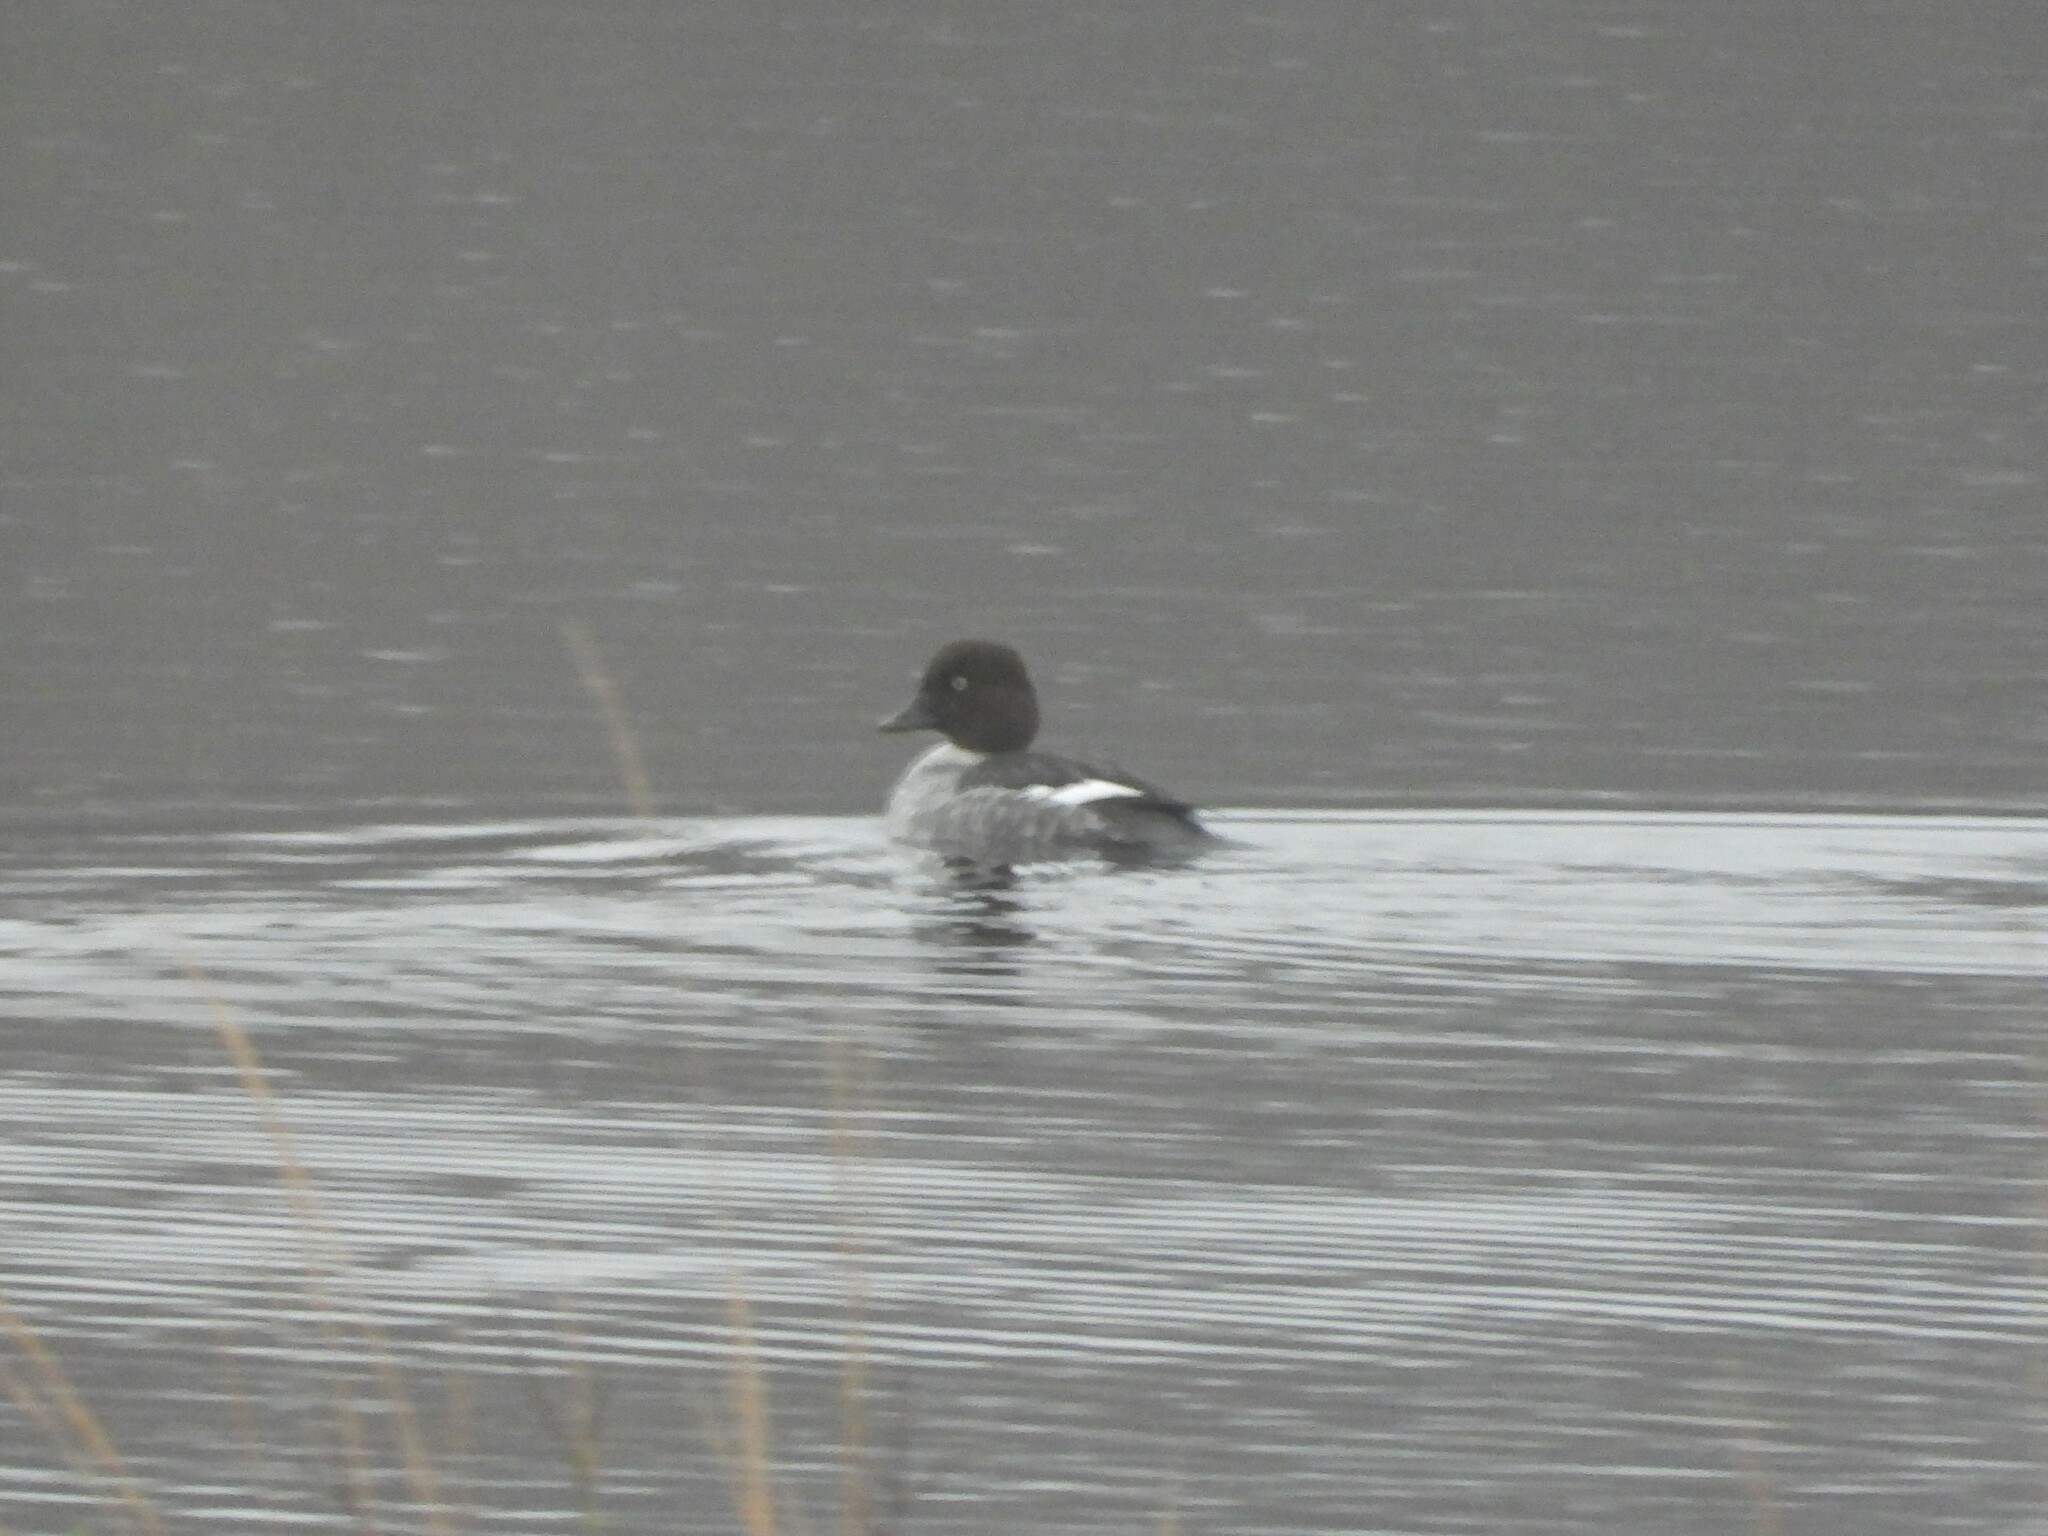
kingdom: Animalia
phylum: Chordata
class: Aves
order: Anseriformes
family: Anatidae
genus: Bucephala
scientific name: Bucephala clangula
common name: Common goldeneye
